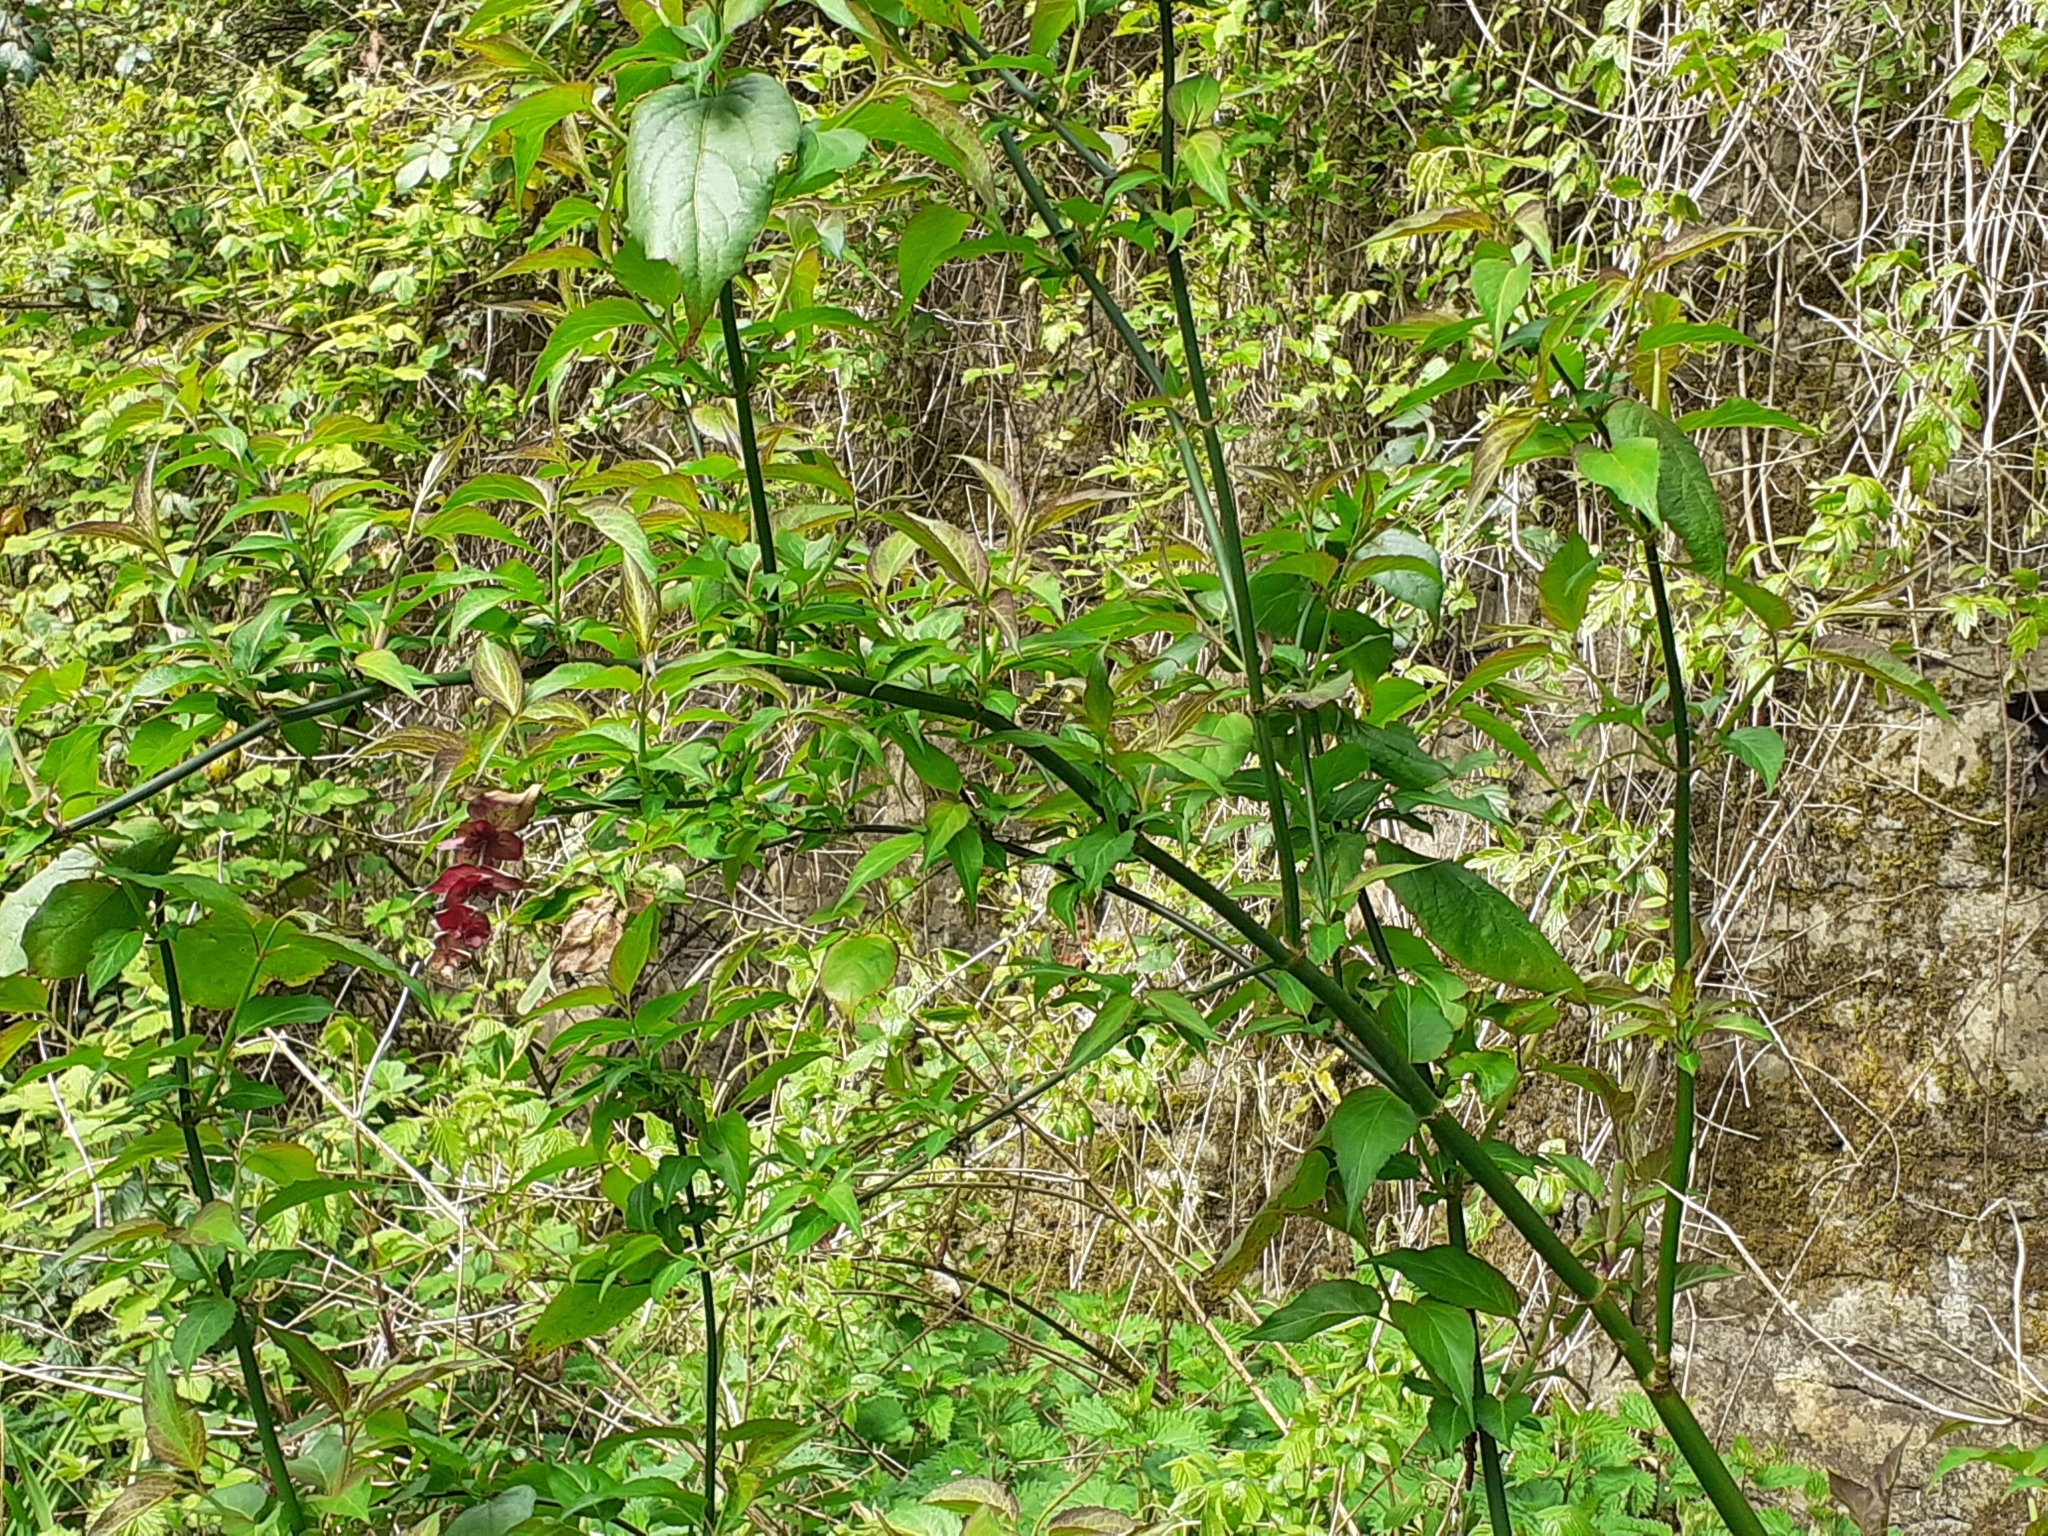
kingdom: Plantae
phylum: Tracheophyta
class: Magnoliopsida
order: Dipsacales
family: Caprifoliaceae
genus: Leycesteria
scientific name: Leycesteria formosa
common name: Himalayan honeysuckle
